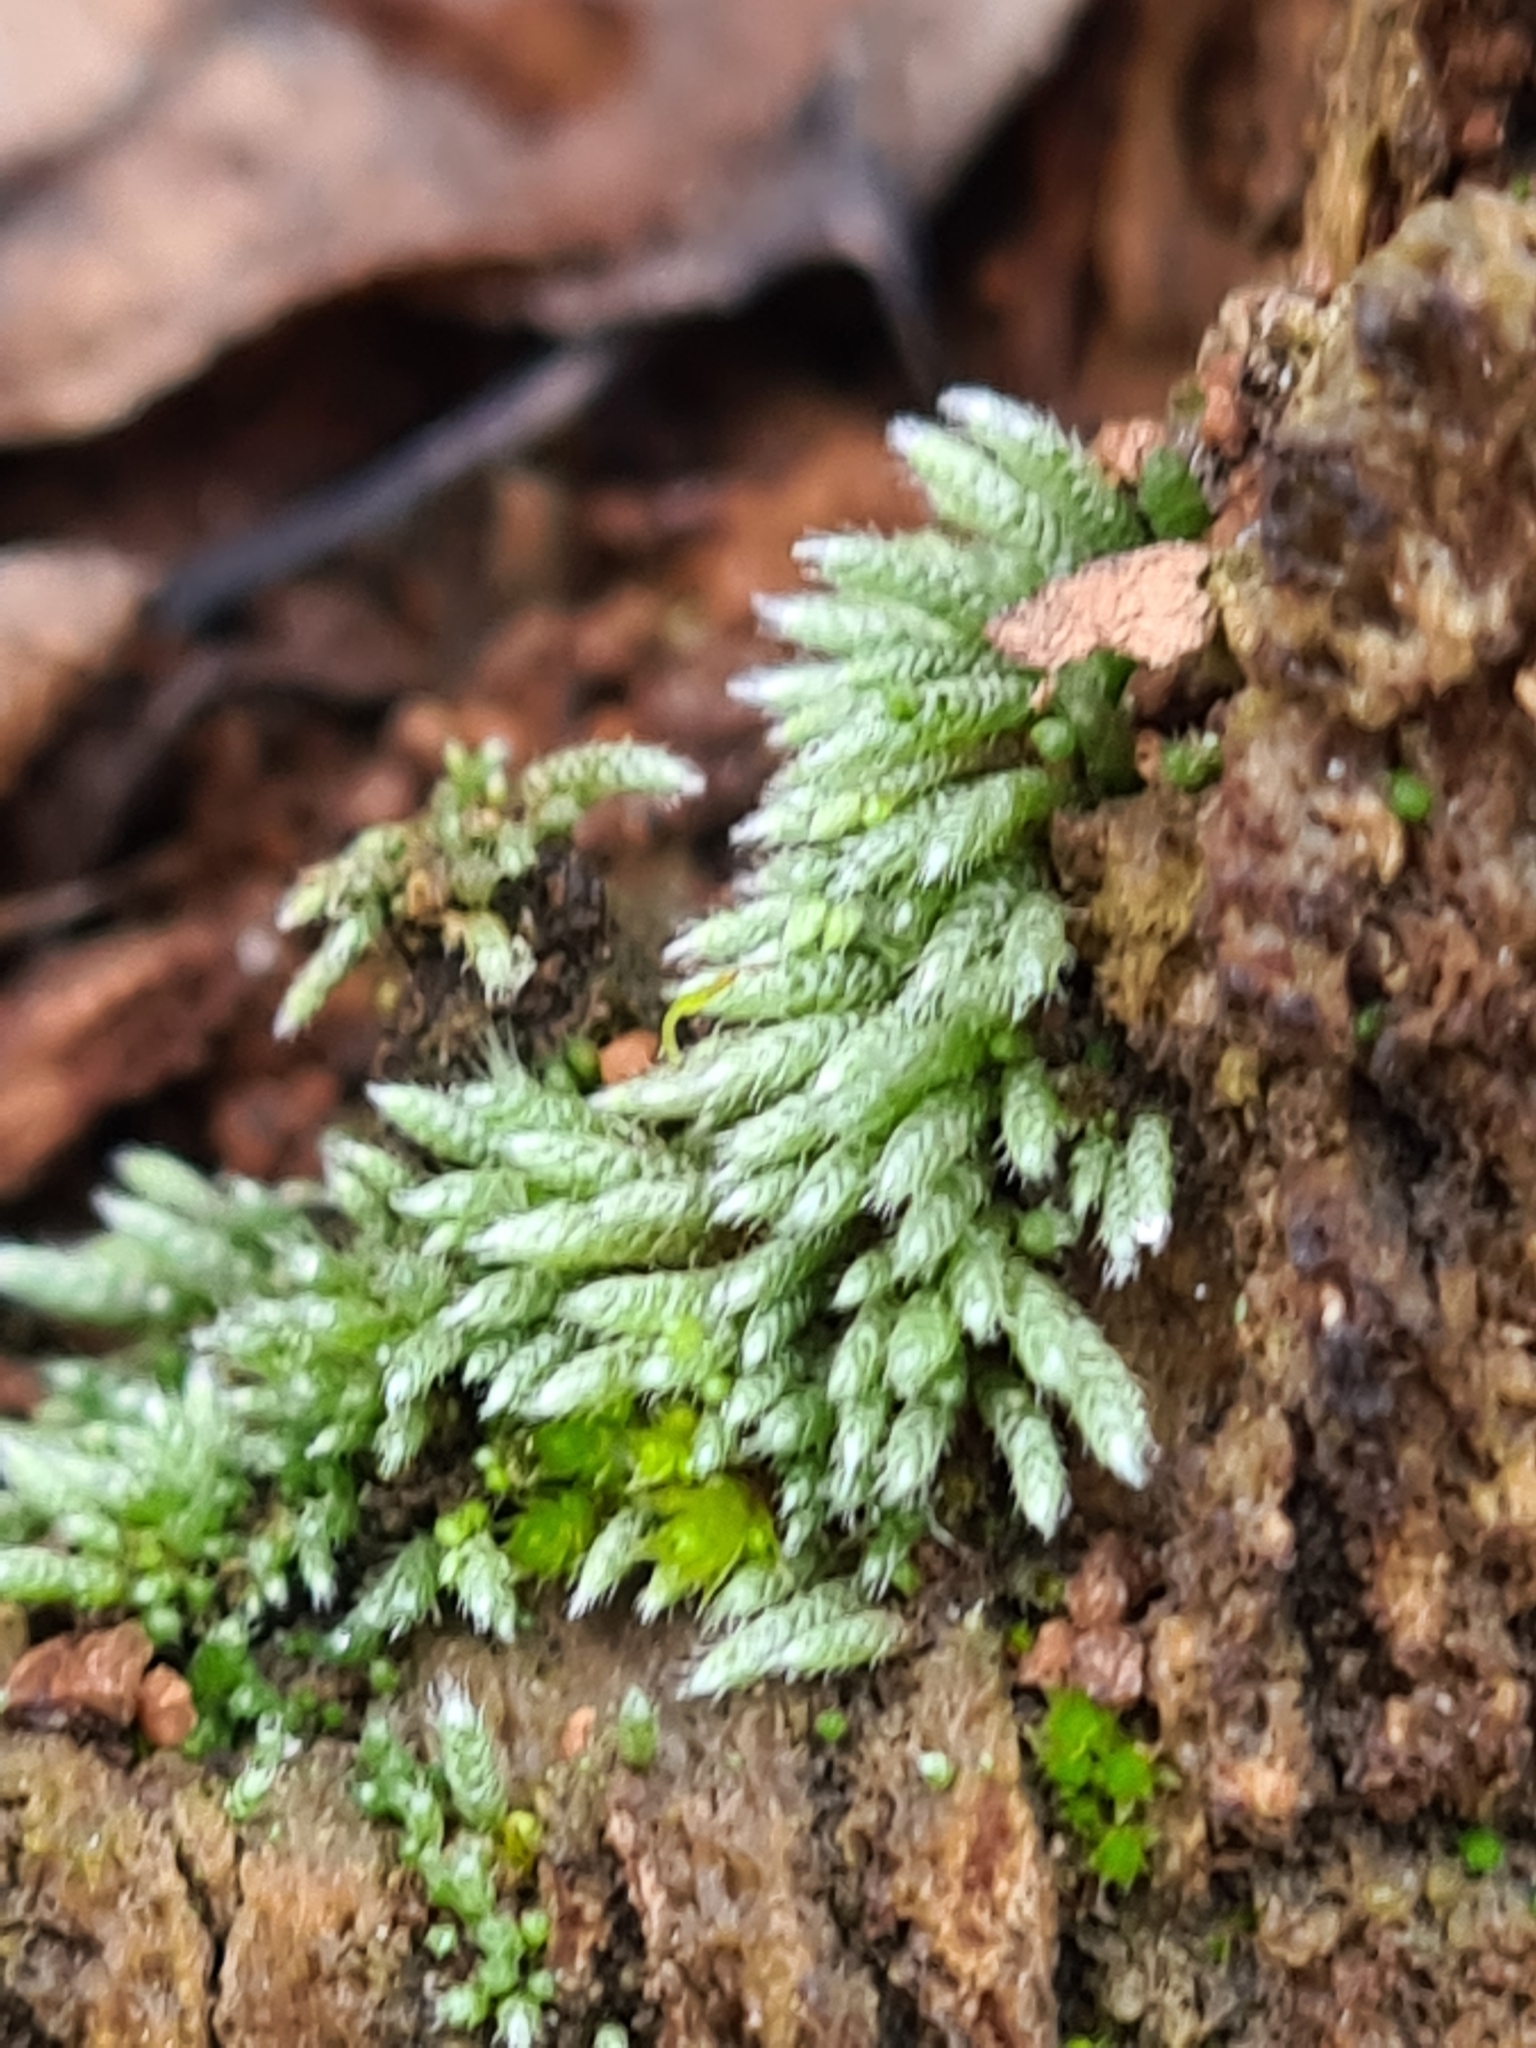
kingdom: Plantae
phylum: Bryophyta
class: Bryopsida
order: Bryales
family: Bryaceae
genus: Bryum
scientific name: Bryum argenteum
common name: Silver-moss
